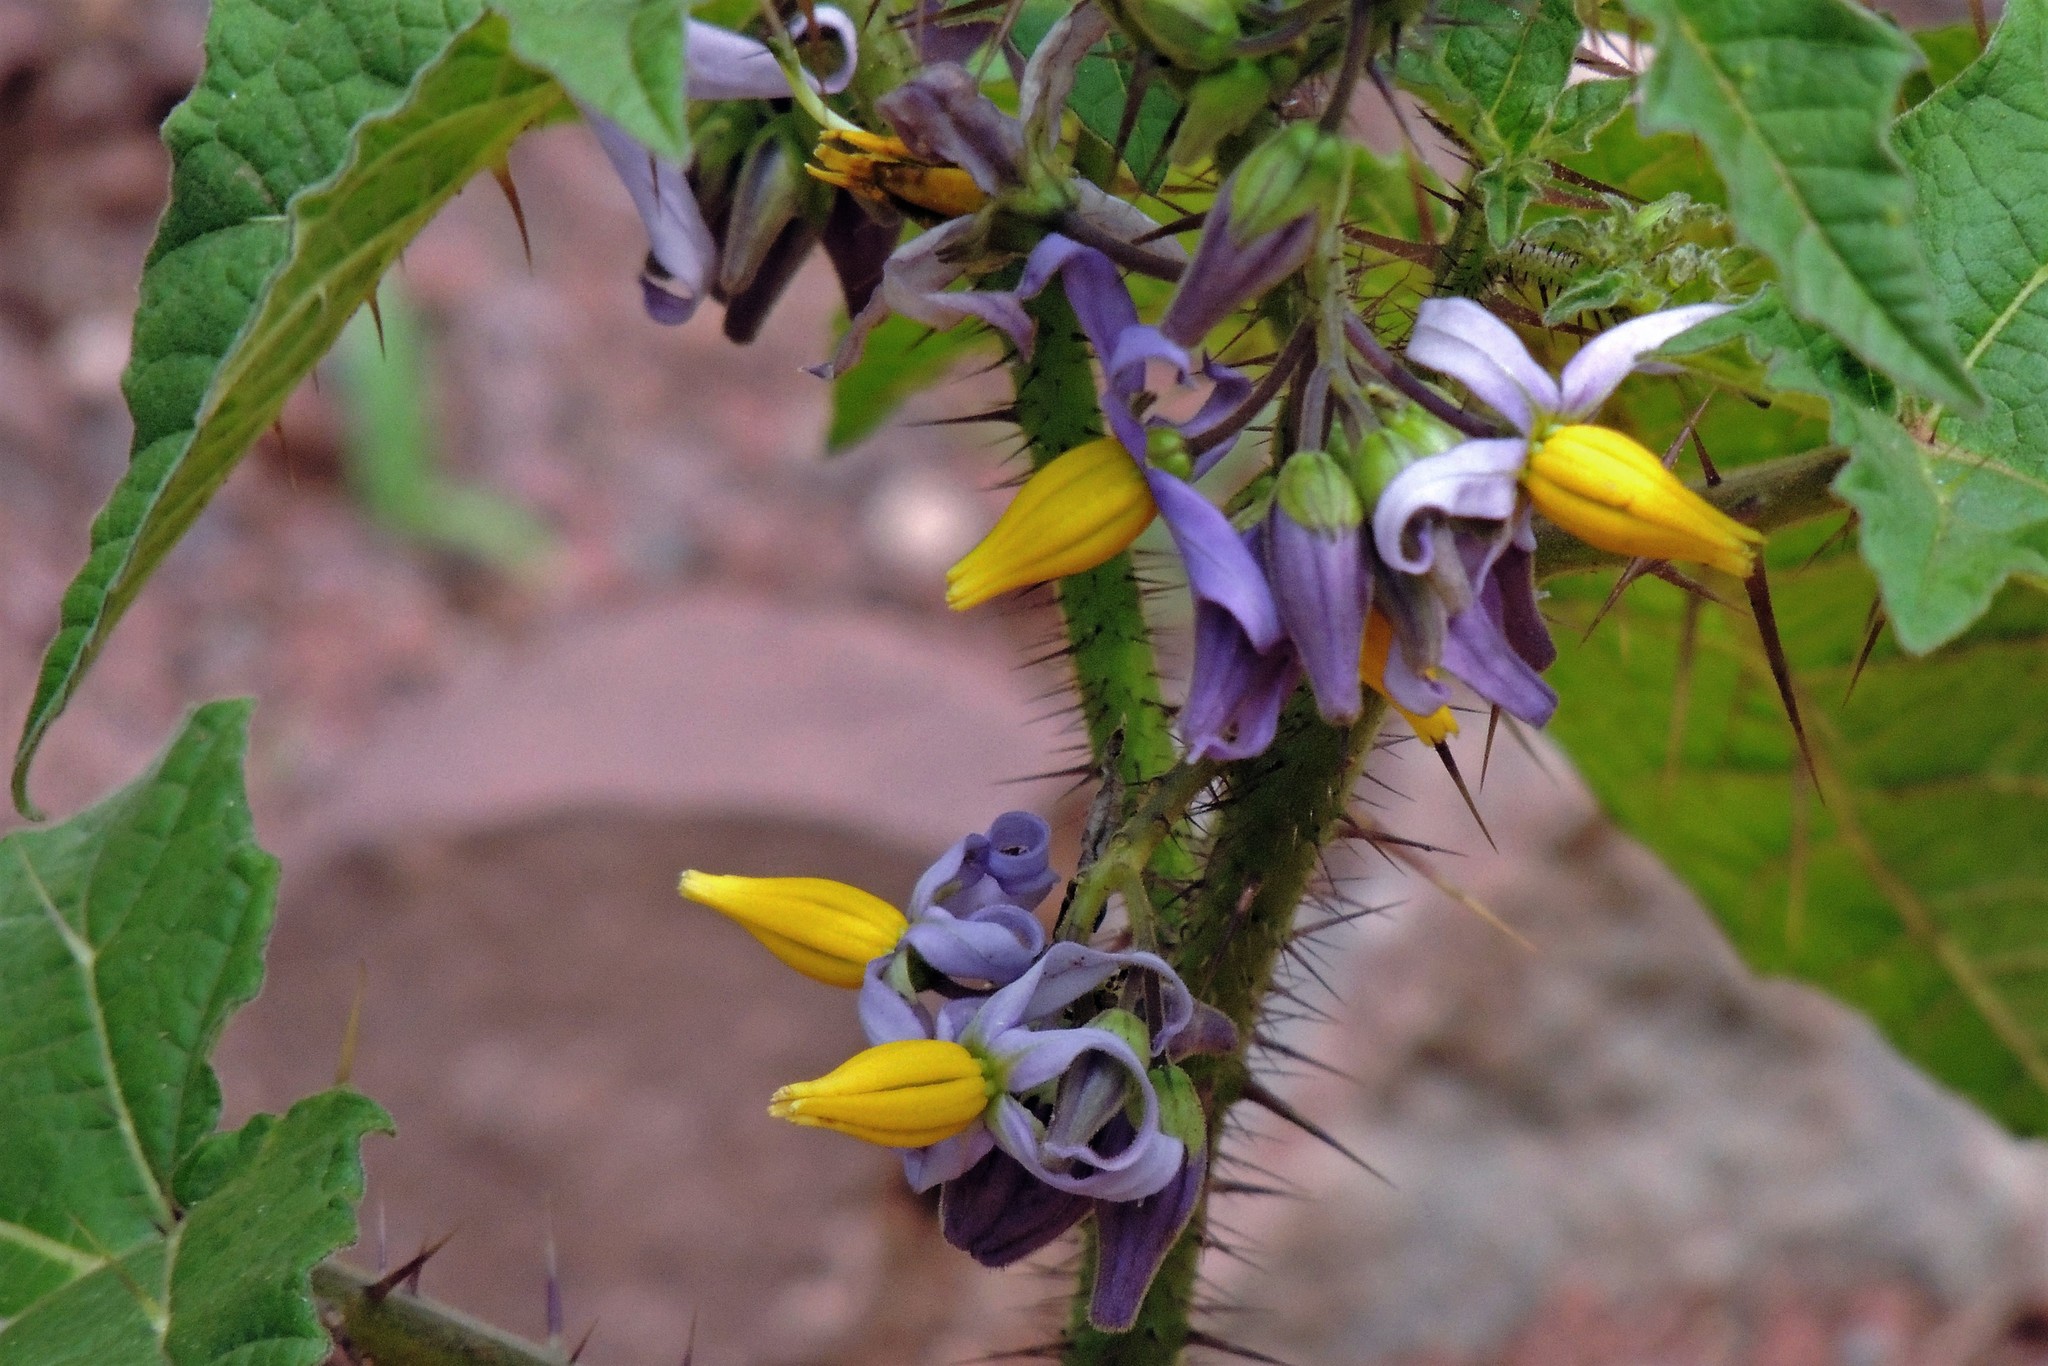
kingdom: Plantae
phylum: Tracheophyta
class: Magnoliopsida
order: Solanales
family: Solanaceae
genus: Solanum
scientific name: Solanum palinacanthum
